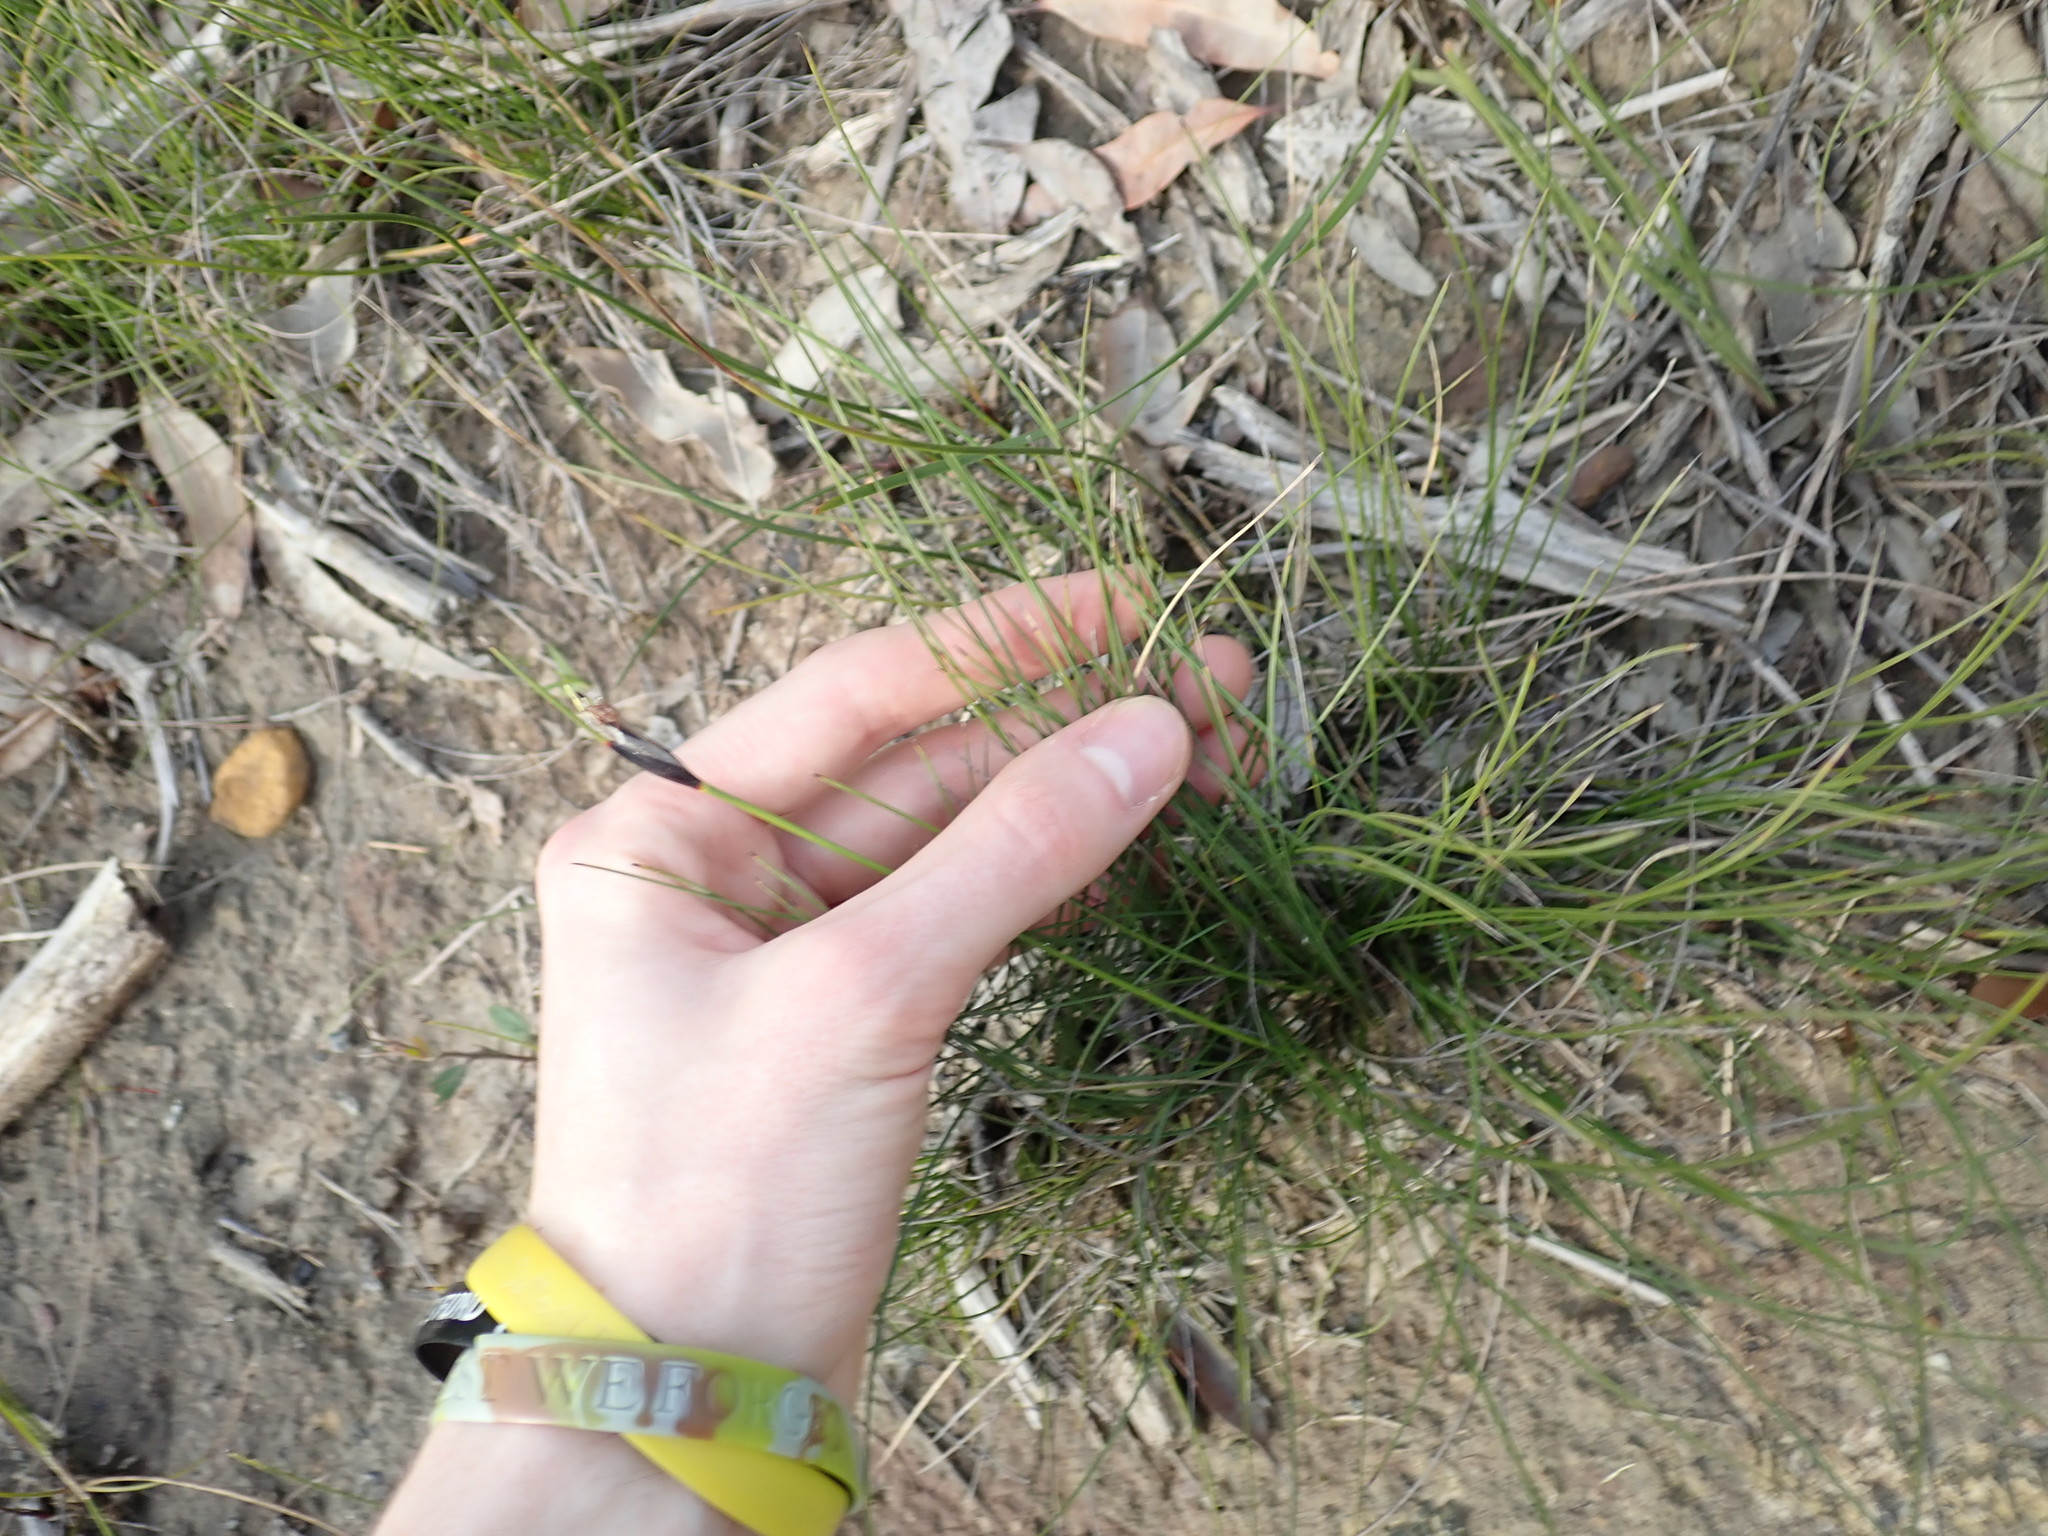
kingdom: Plantae
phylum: Tracheophyta
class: Liliopsida
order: Poales
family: Cyperaceae
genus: Ptilothrix
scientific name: Ptilothrix deusta
